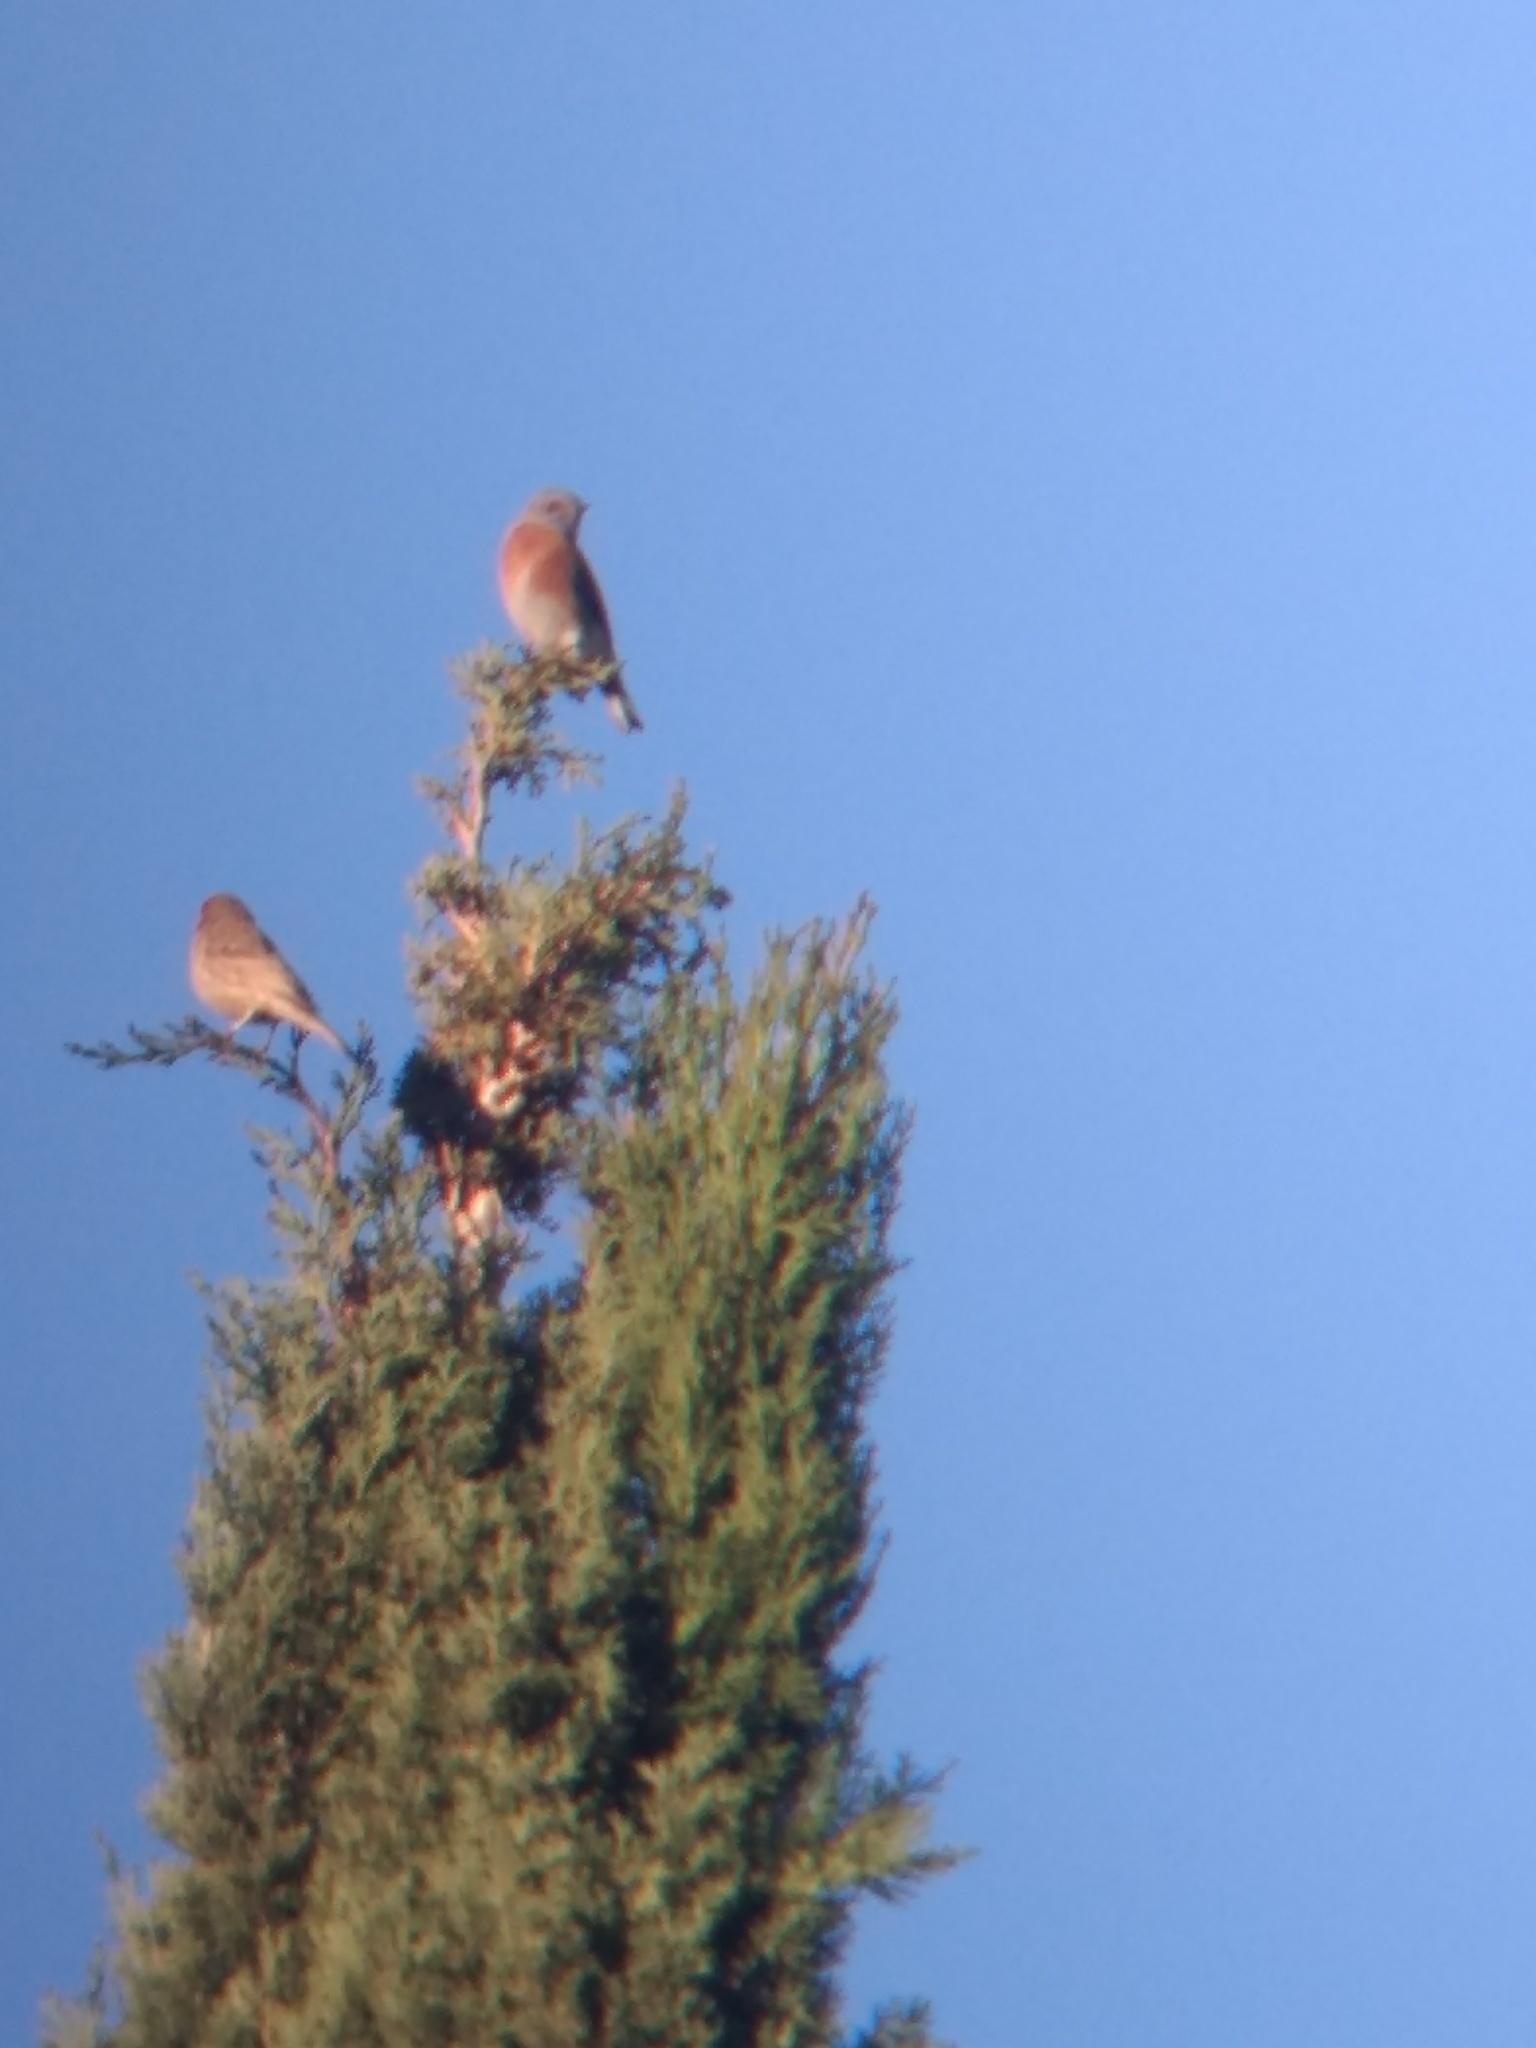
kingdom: Animalia
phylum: Chordata
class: Aves
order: Passeriformes
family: Turdidae
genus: Sialia
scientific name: Sialia mexicana
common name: Western bluebird
